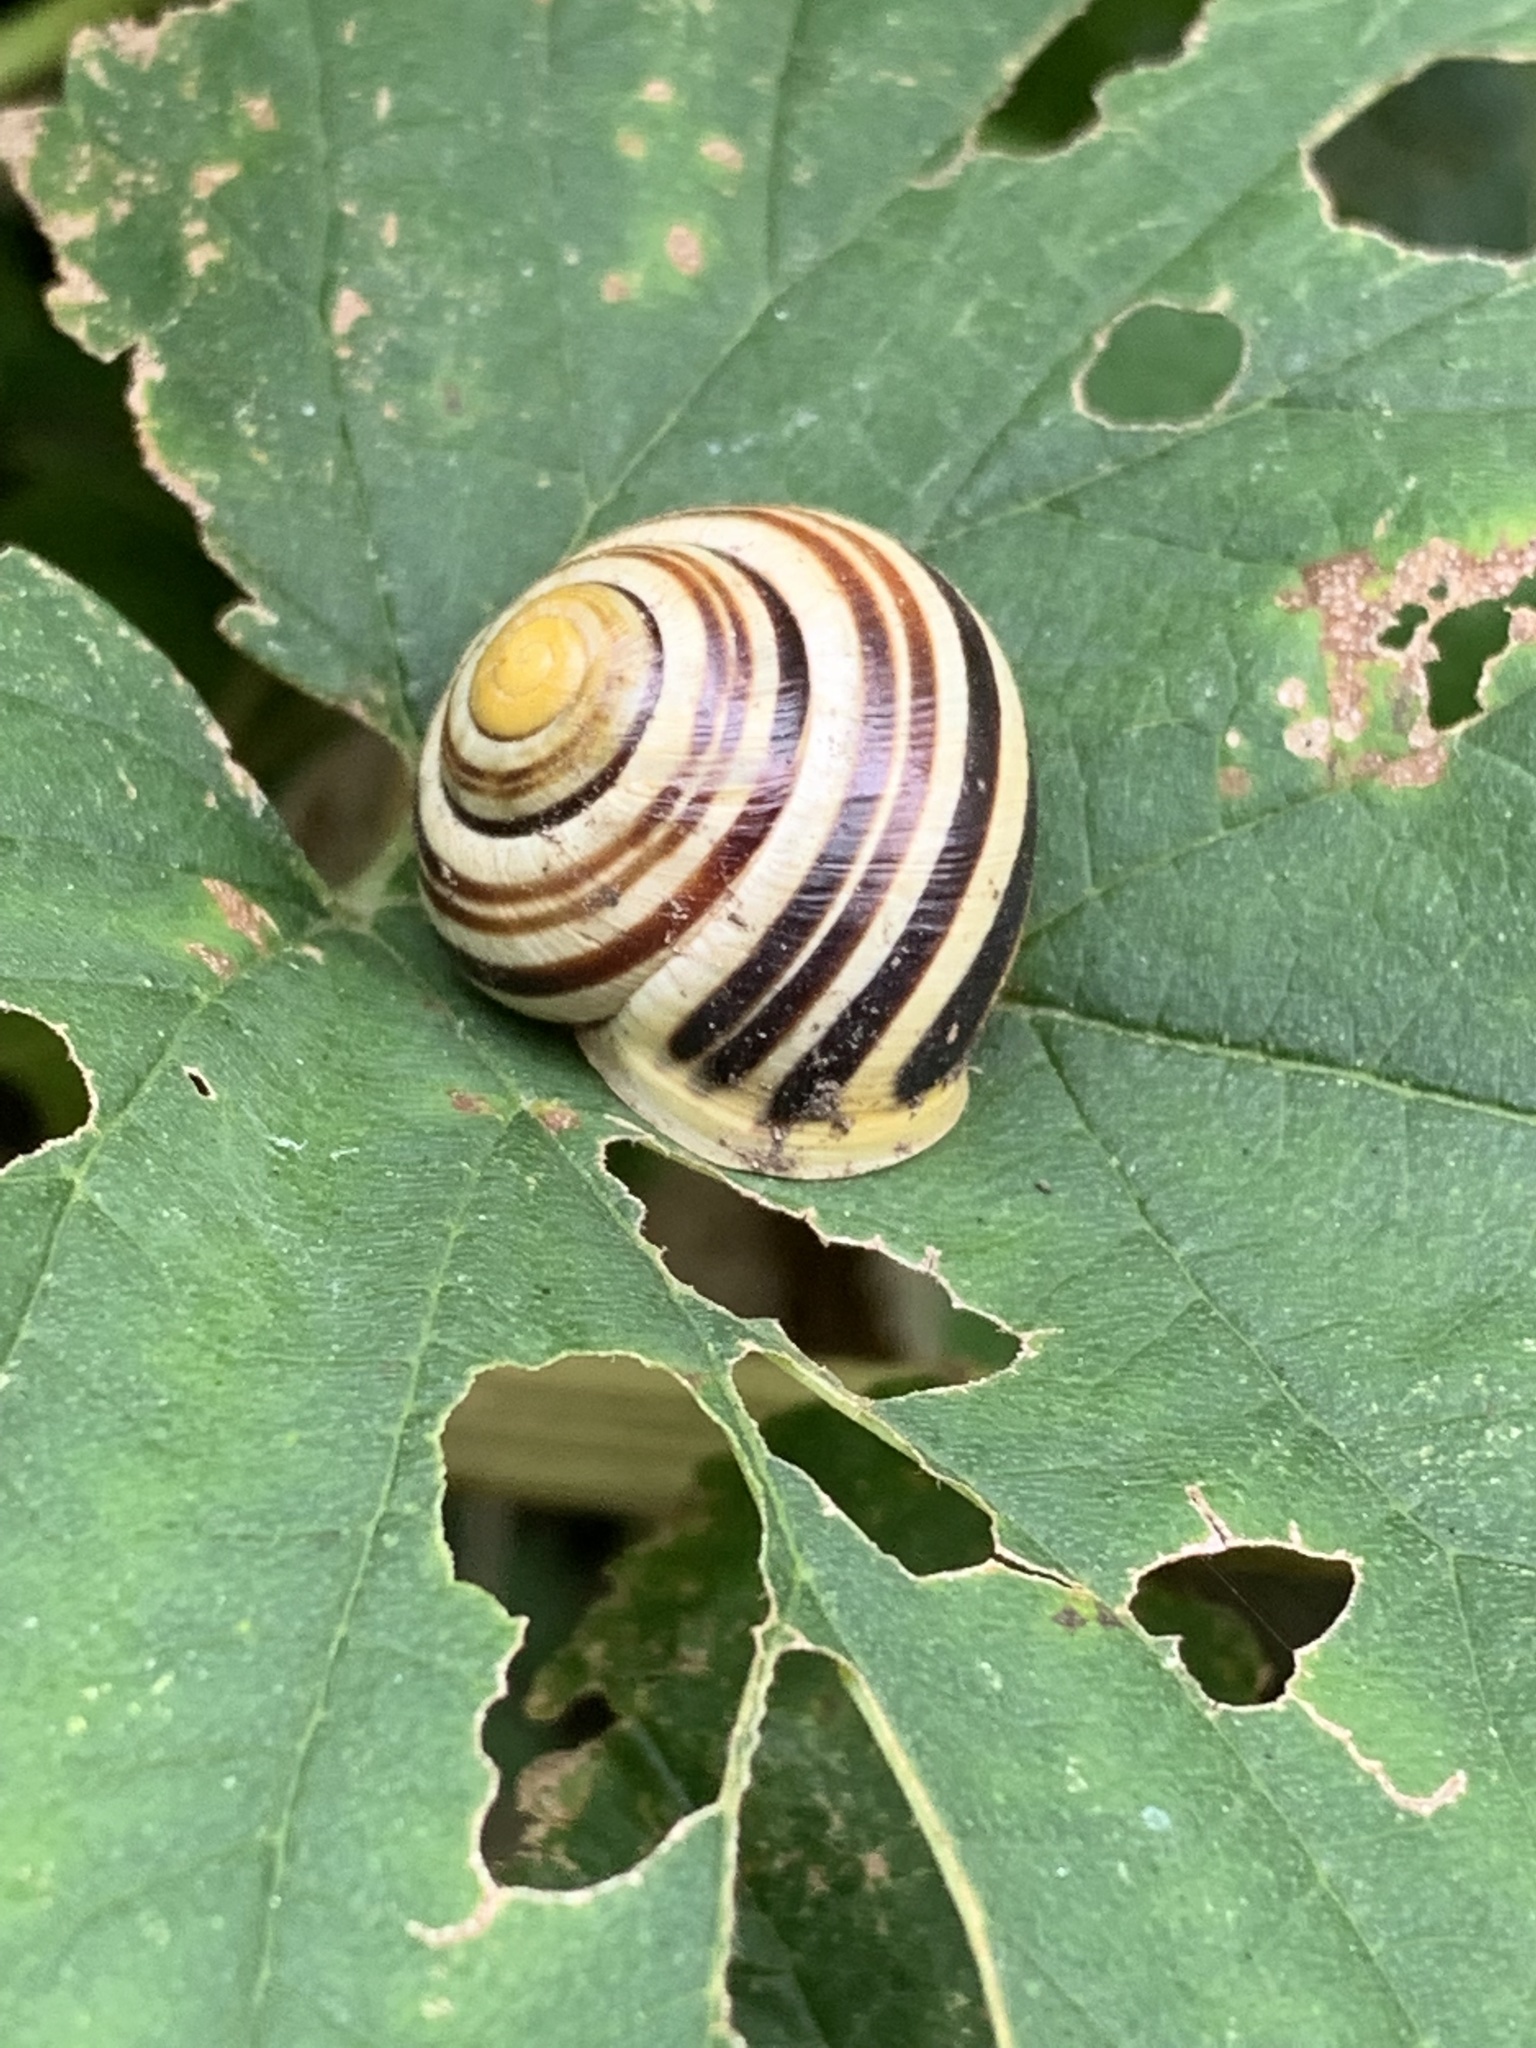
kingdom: Animalia
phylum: Mollusca
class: Gastropoda
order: Stylommatophora
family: Helicidae
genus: Cepaea
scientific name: Cepaea hortensis
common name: White-lip gardensnail
